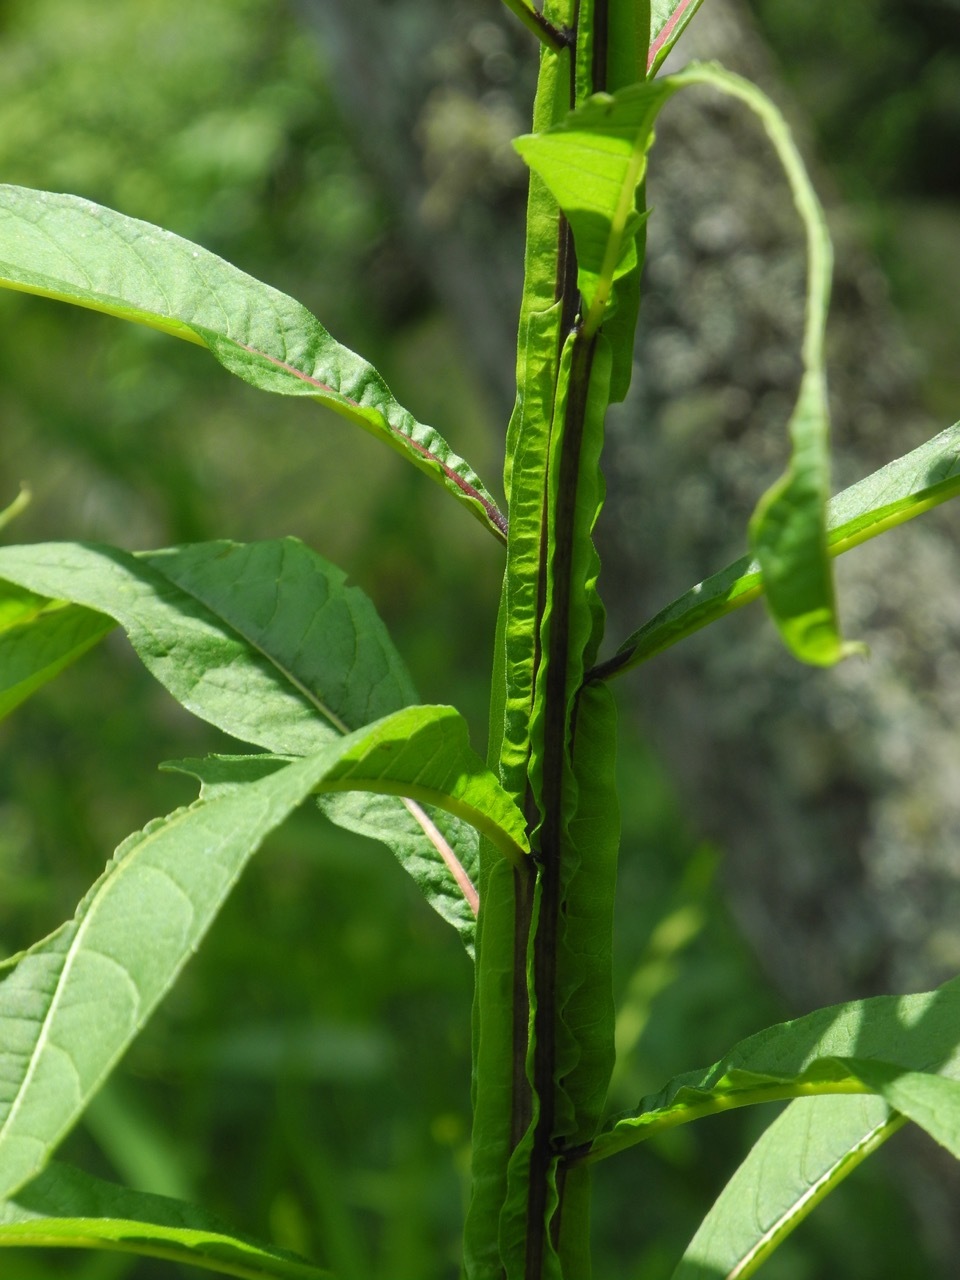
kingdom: Plantae
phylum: Tracheophyta
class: Magnoliopsida
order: Asterales
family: Asteraceae
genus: Verbesina
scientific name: Verbesina alternifolia
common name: Wingstem
